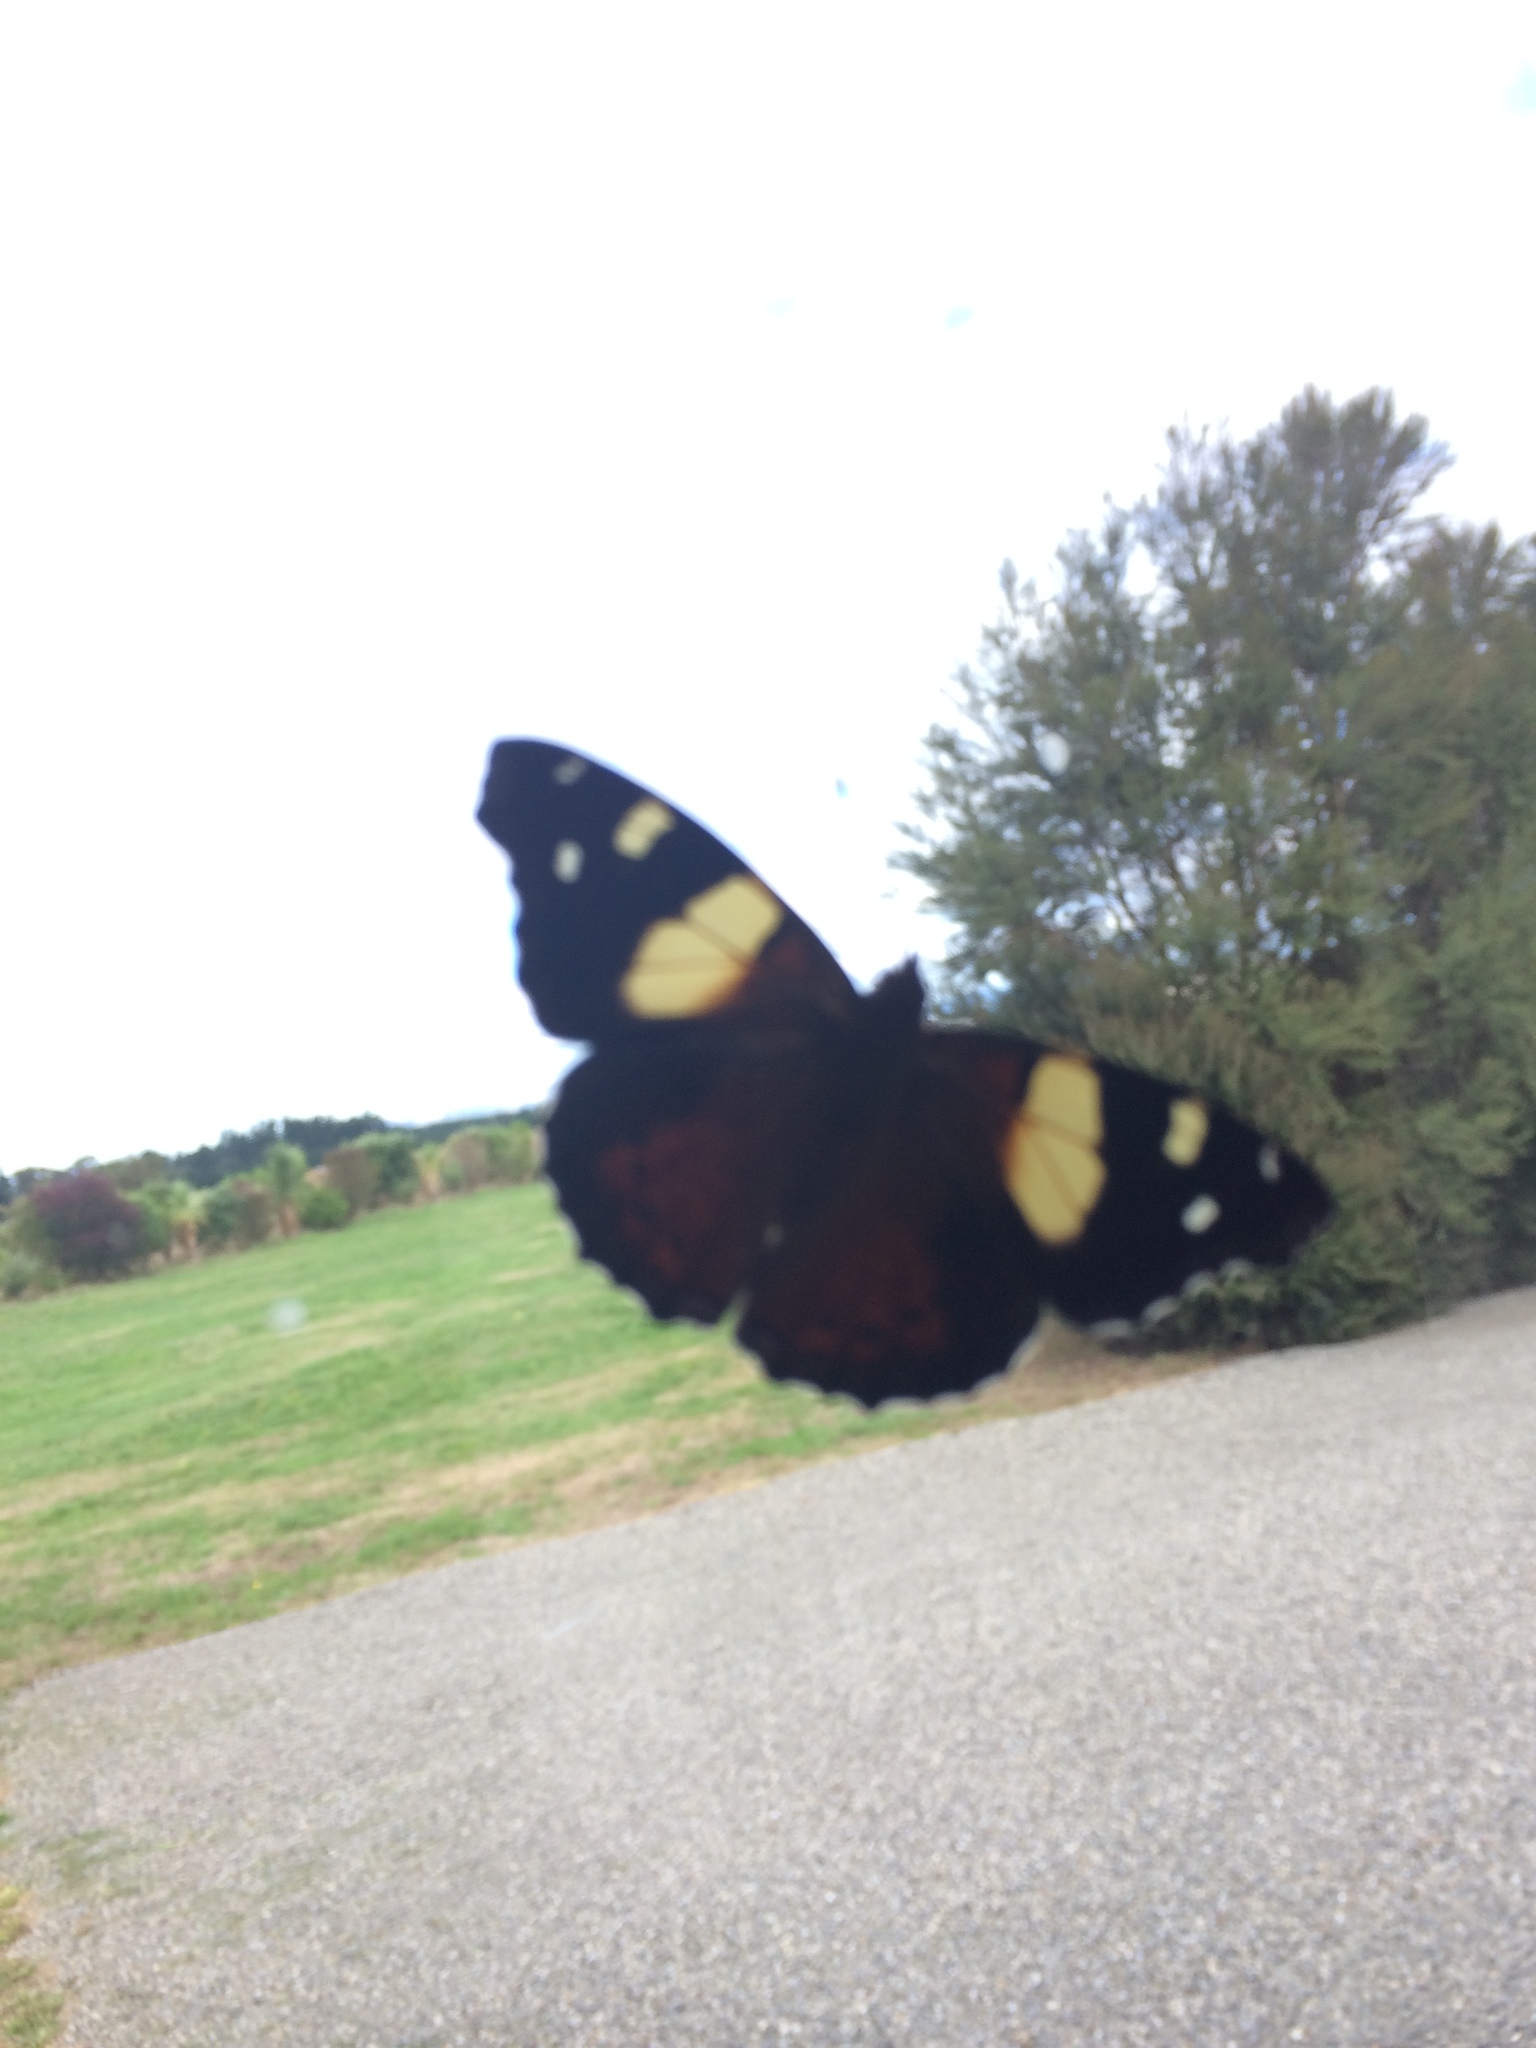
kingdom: Animalia
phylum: Arthropoda
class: Insecta
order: Lepidoptera
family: Nymphalidae
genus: Vanessa
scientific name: Vanessa itea
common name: Yellow admiral
